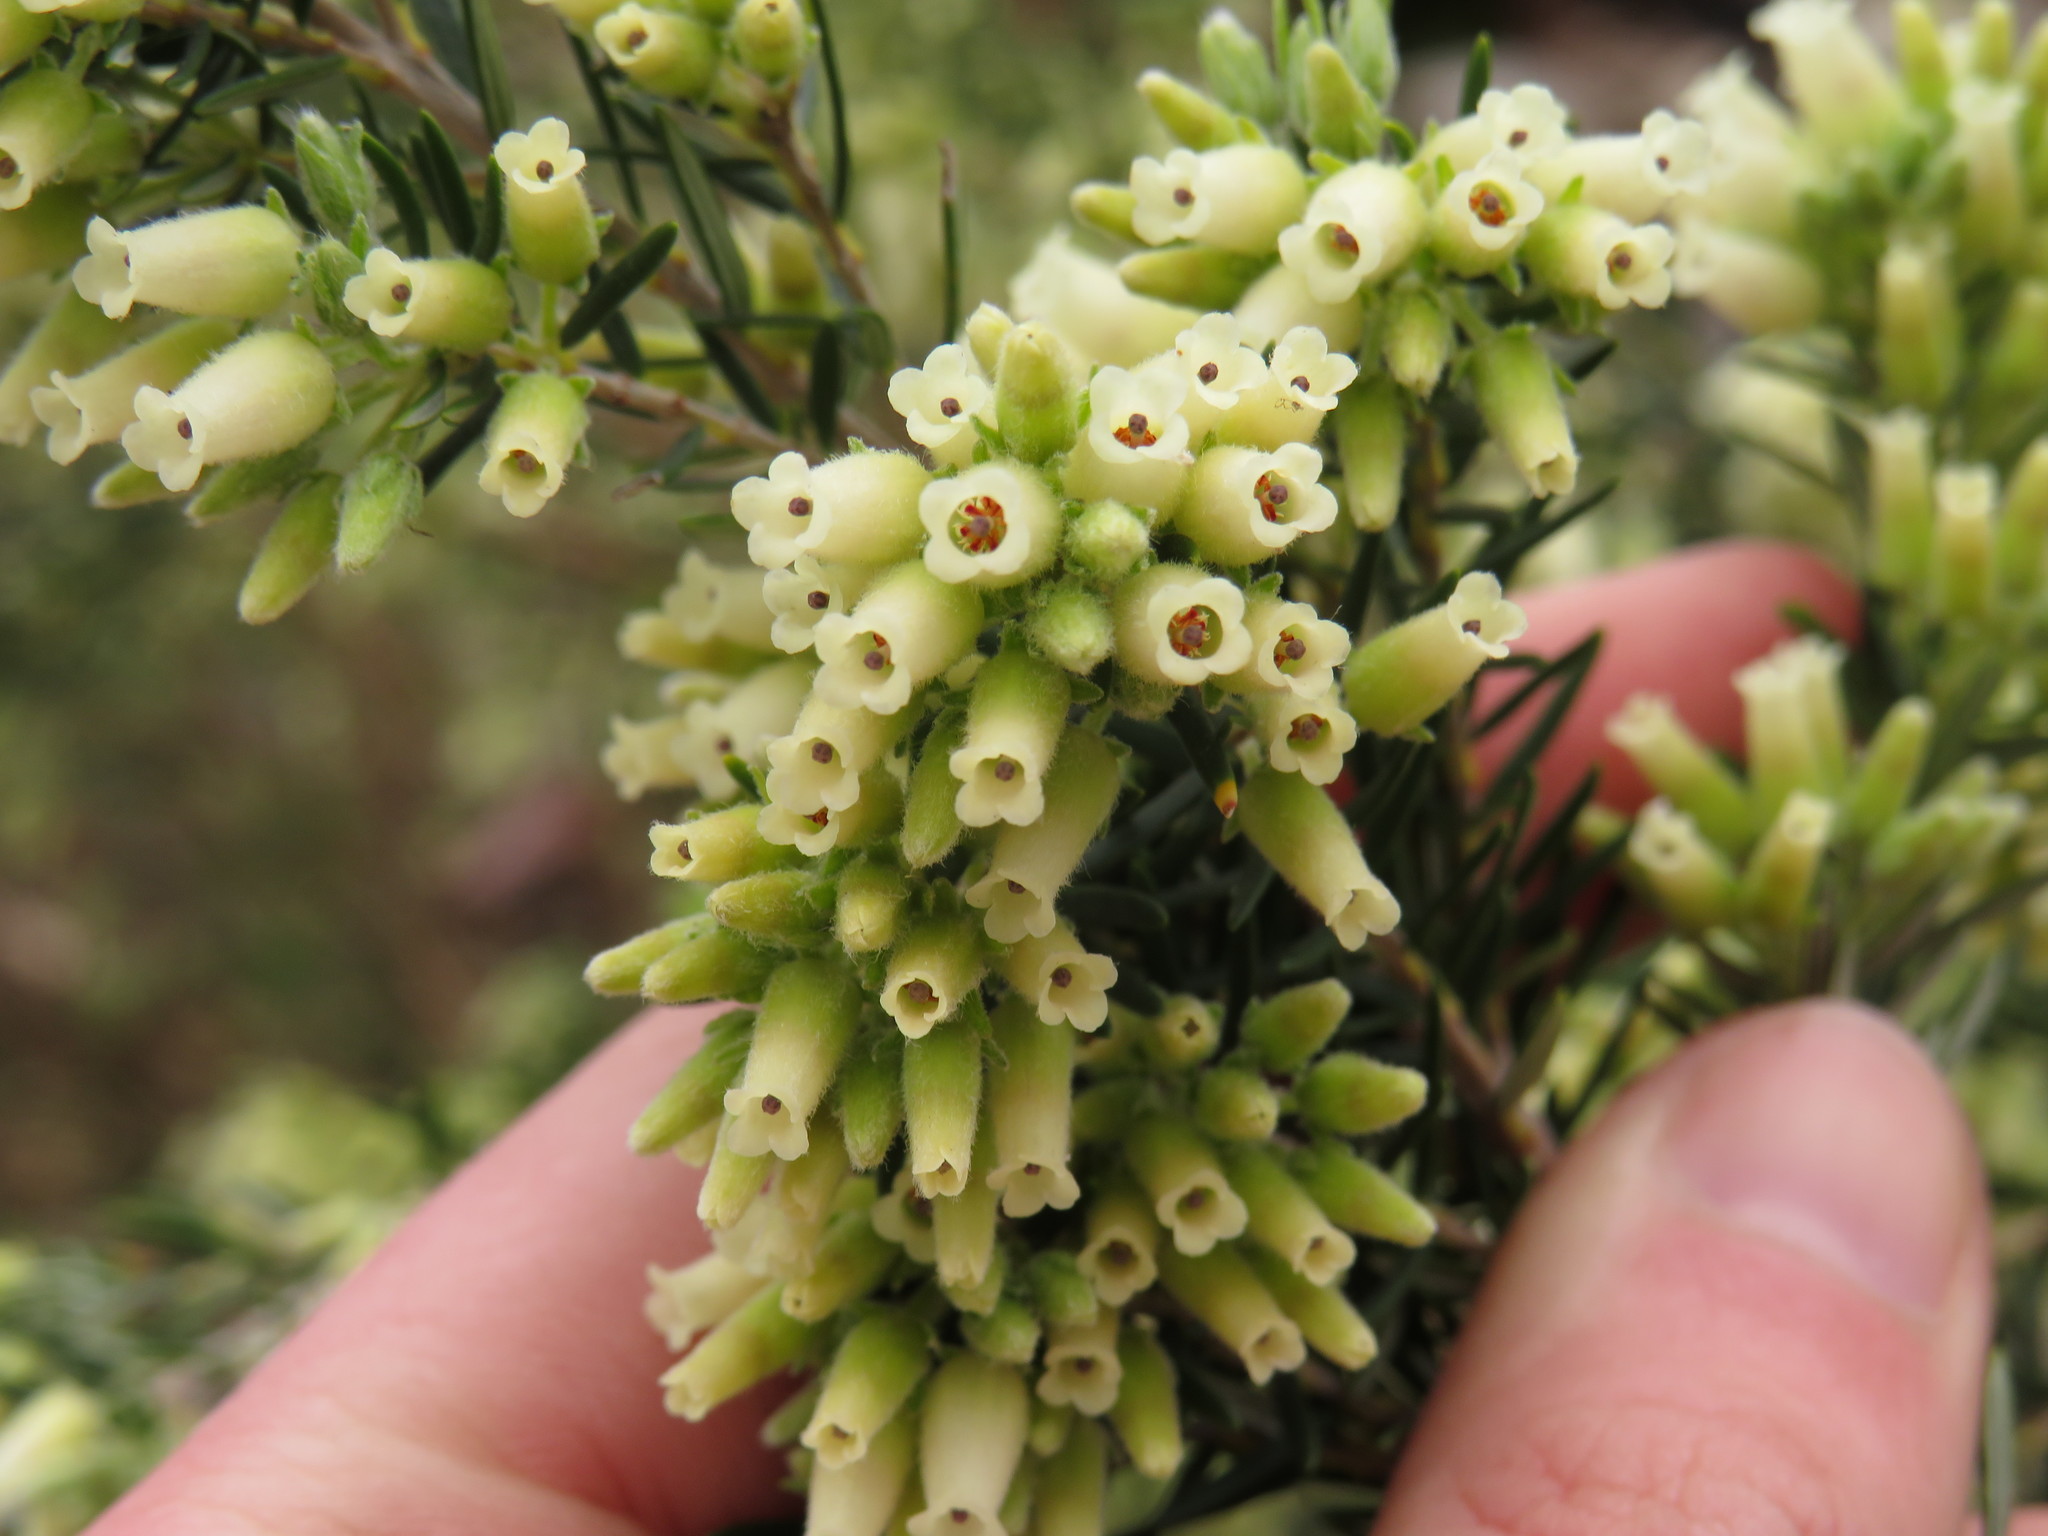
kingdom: Plantae
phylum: Tracheophyta
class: Magnoliopsida
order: Ericales
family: Ericaceae
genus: Erica
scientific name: Erica caffra
